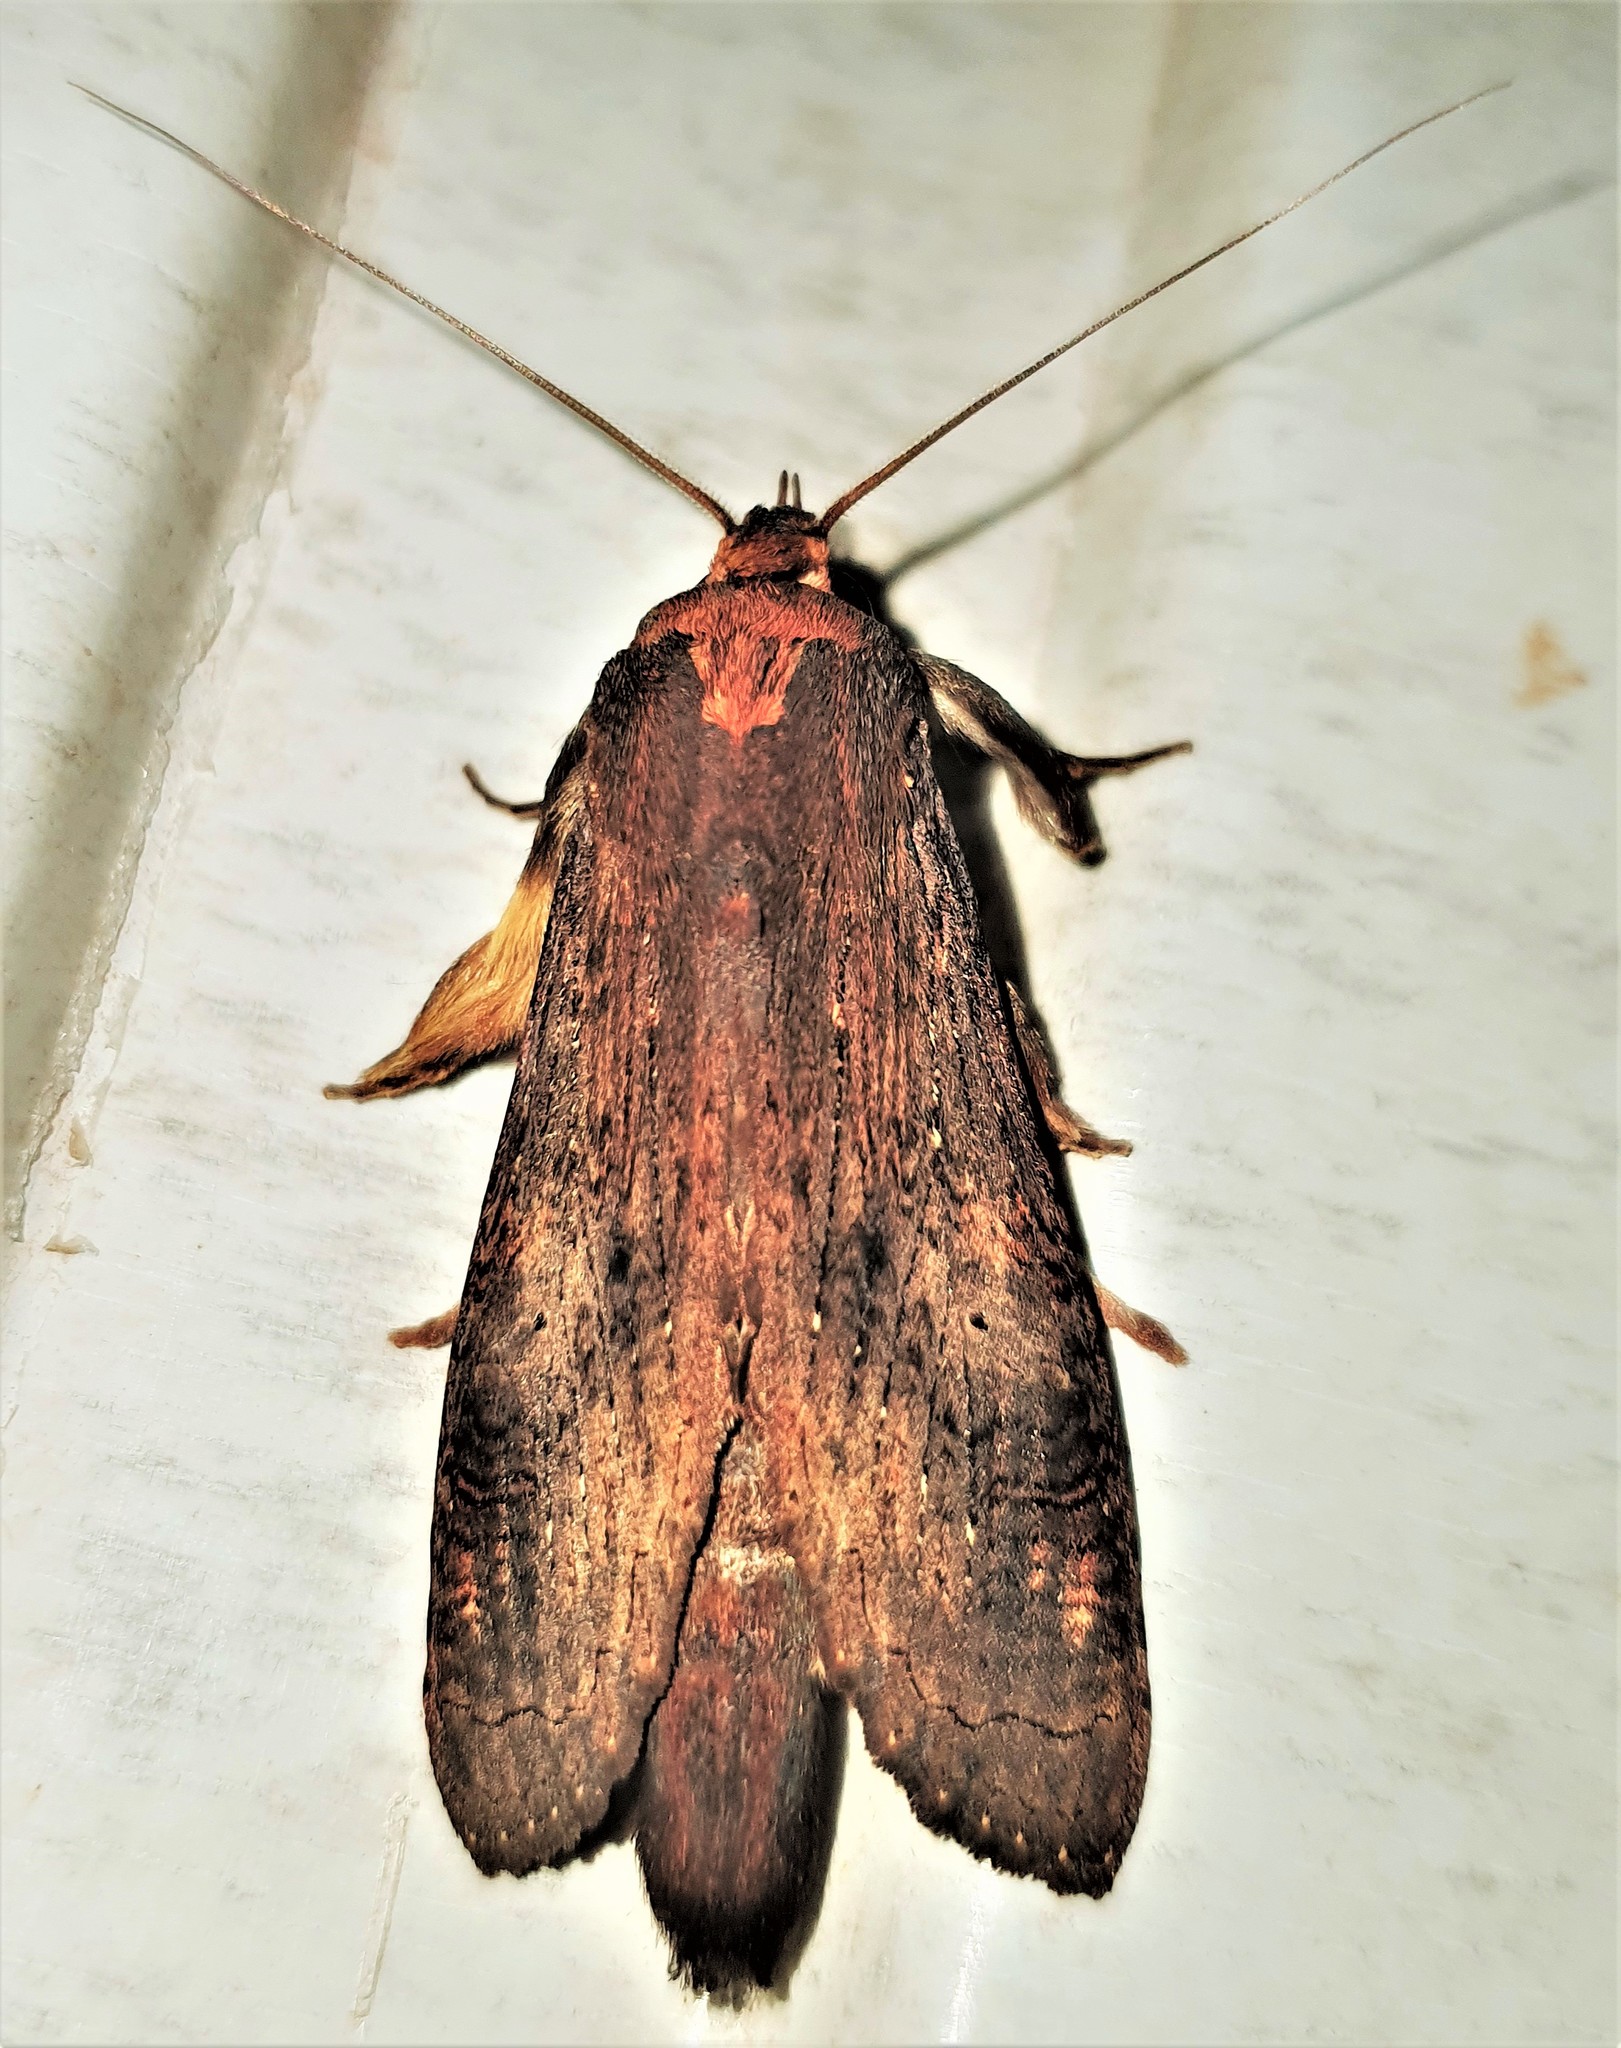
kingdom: Animalia
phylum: Arthropoda
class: Insecta
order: Lepidoptera
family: Notodontidae
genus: Nystalea
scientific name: Nystalea superciliosa
